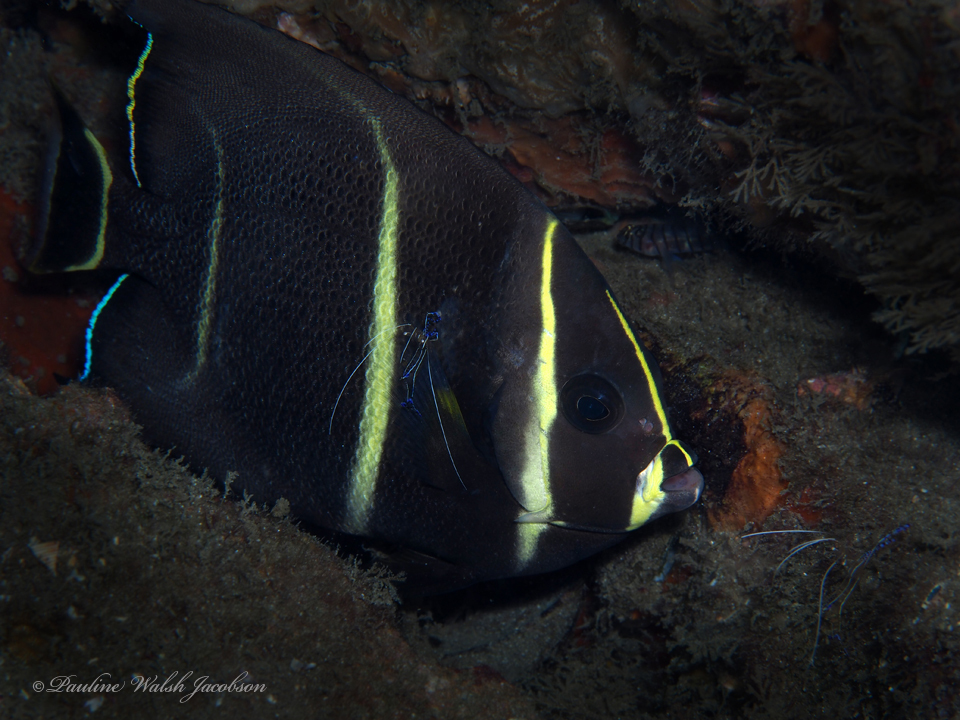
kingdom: Animalia
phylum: Chordata
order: Perciformes
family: Pomacanthidae
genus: Pomacanthus
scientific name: Pomacanthus arcuatus
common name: Gray angelfish
